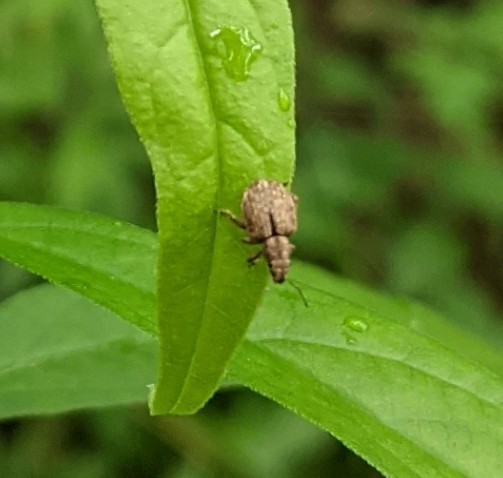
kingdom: Animalia
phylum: Arthropoda
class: Insecta
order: Coleoptera
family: Curculionidae
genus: Strophosoma
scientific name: Strophosoma melanogrammum
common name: Weevil
